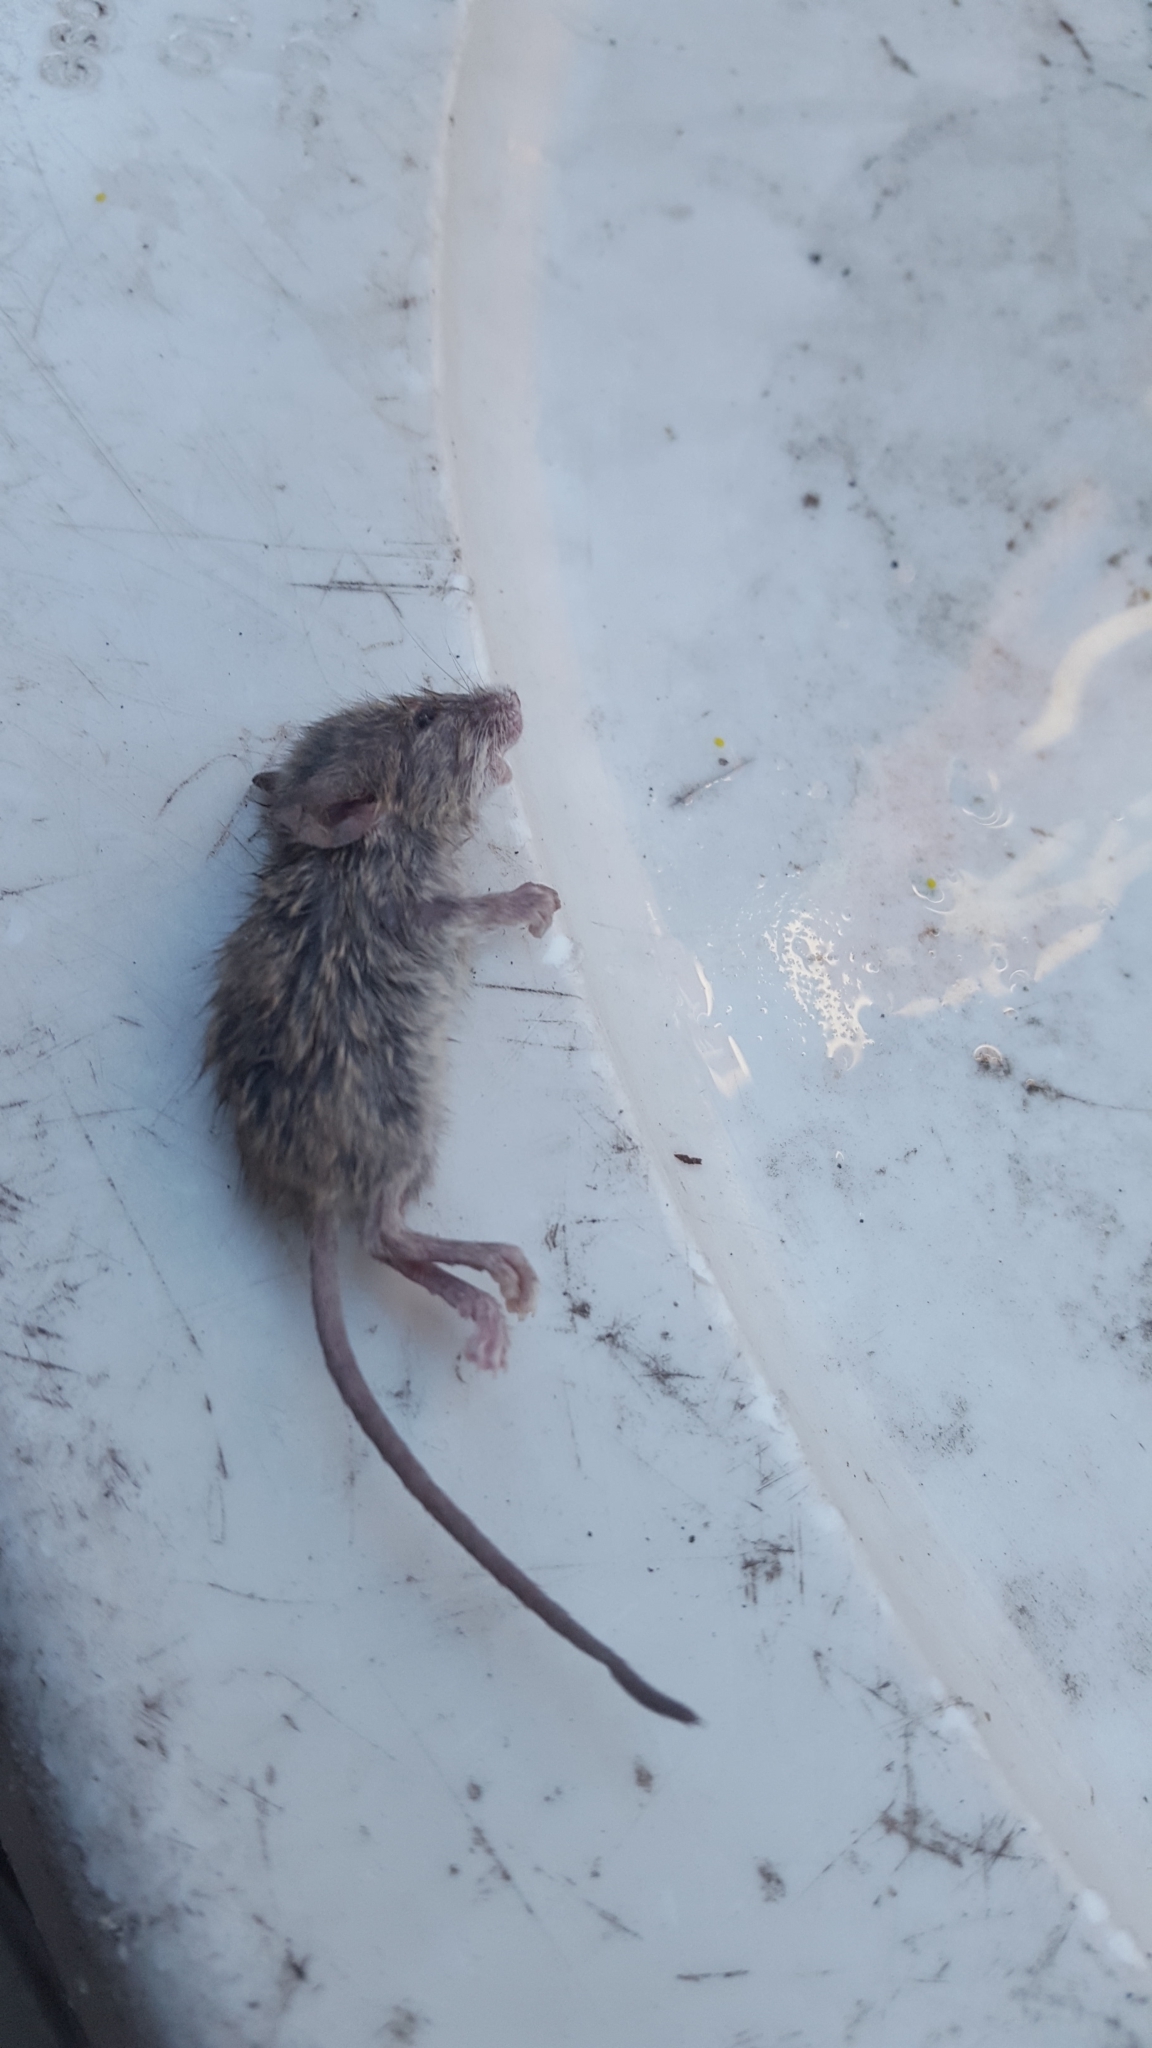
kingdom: Animalia
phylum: Chordata
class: Mammalia
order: Rodentia
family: Muridae
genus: Mus
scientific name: Mus musculus
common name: House mouse
